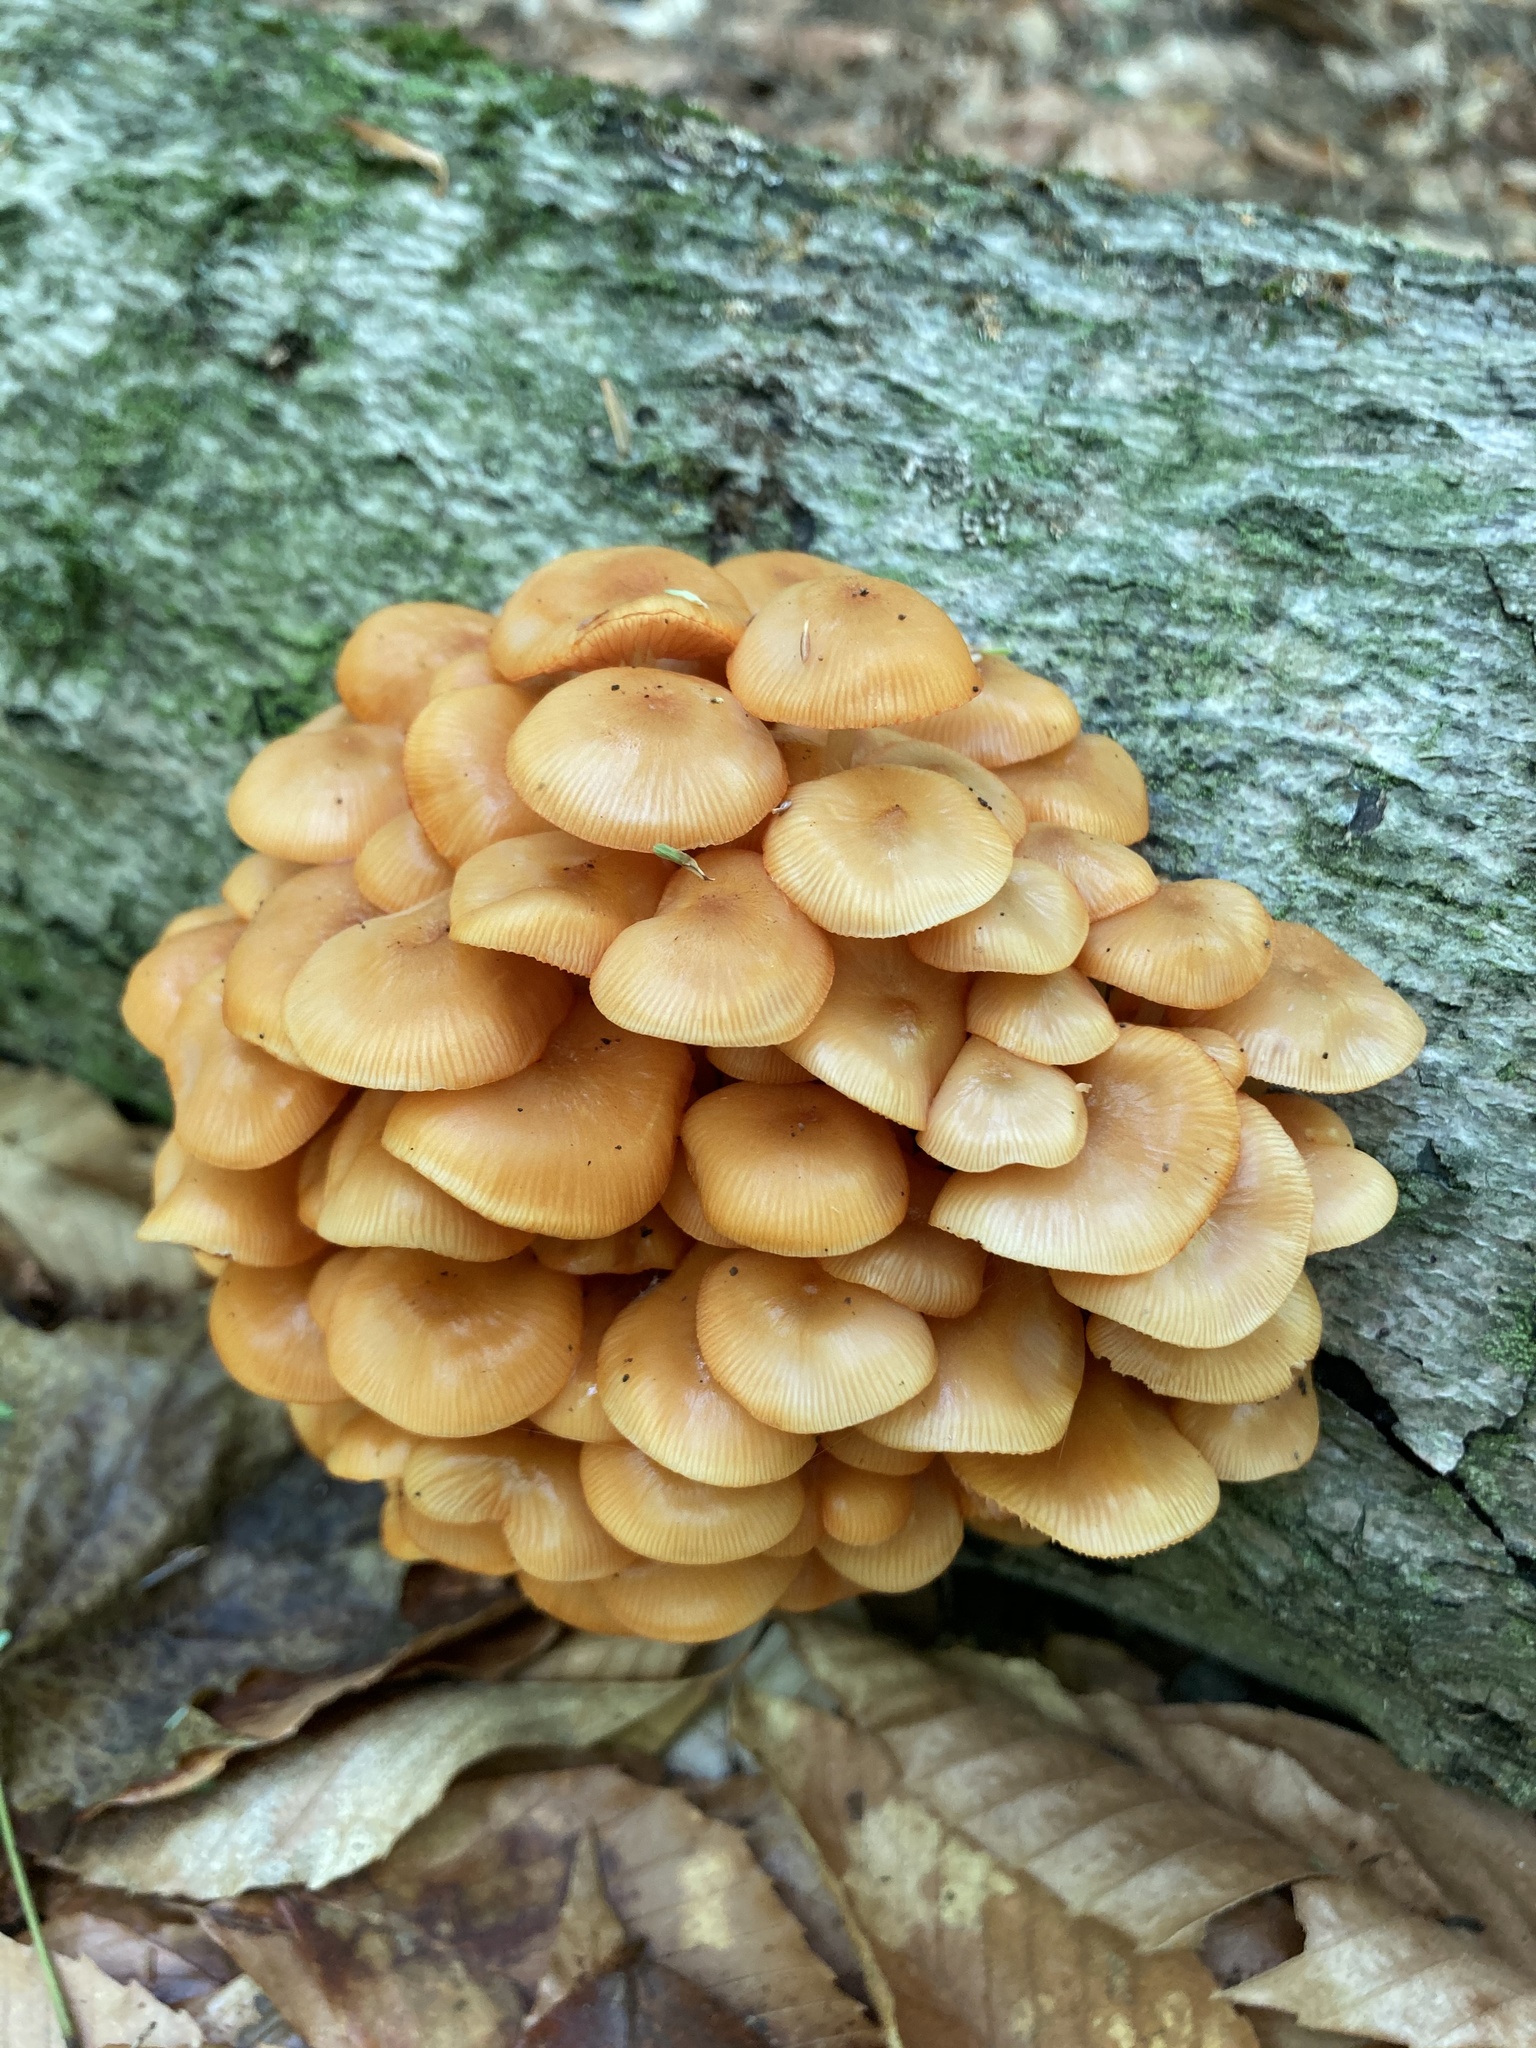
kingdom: Fungi
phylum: Basidiomycota
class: Agaricomycetes
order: Agaricales
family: Mycenaceae
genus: Mycena
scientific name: Mycena leaiana
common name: Orange mycena
